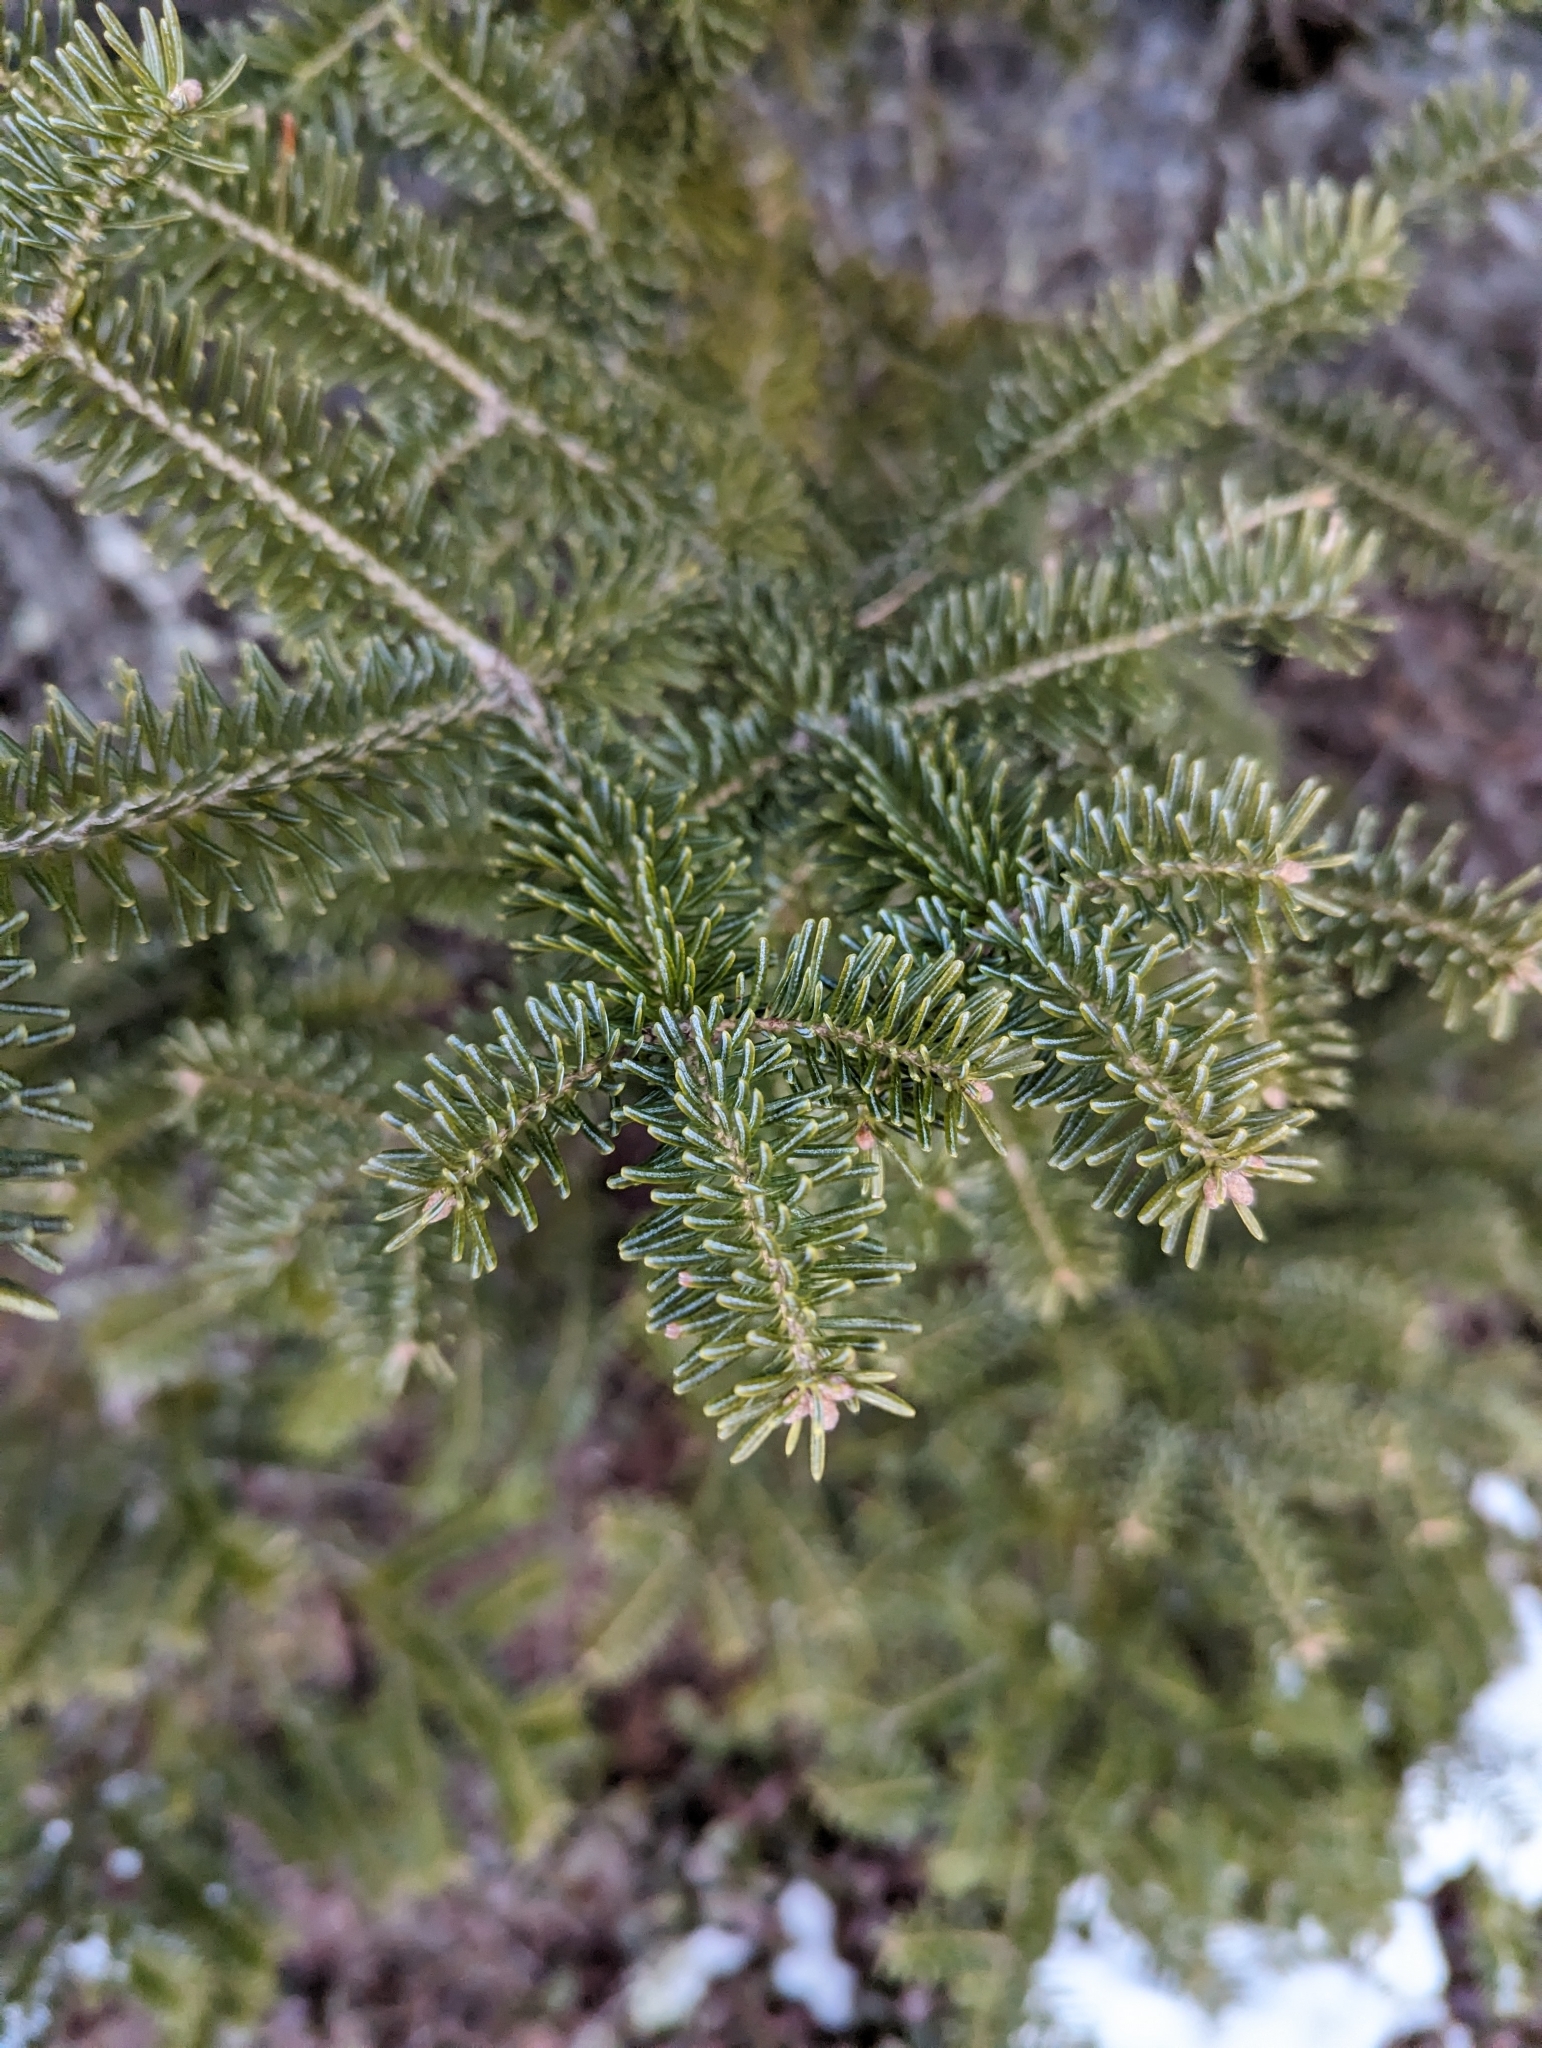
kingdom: Plantae
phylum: Tracheophyta
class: Pinopsida
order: Pinales
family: Pinaceae
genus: Abies
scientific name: Abies balsamea
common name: Balsam fir
